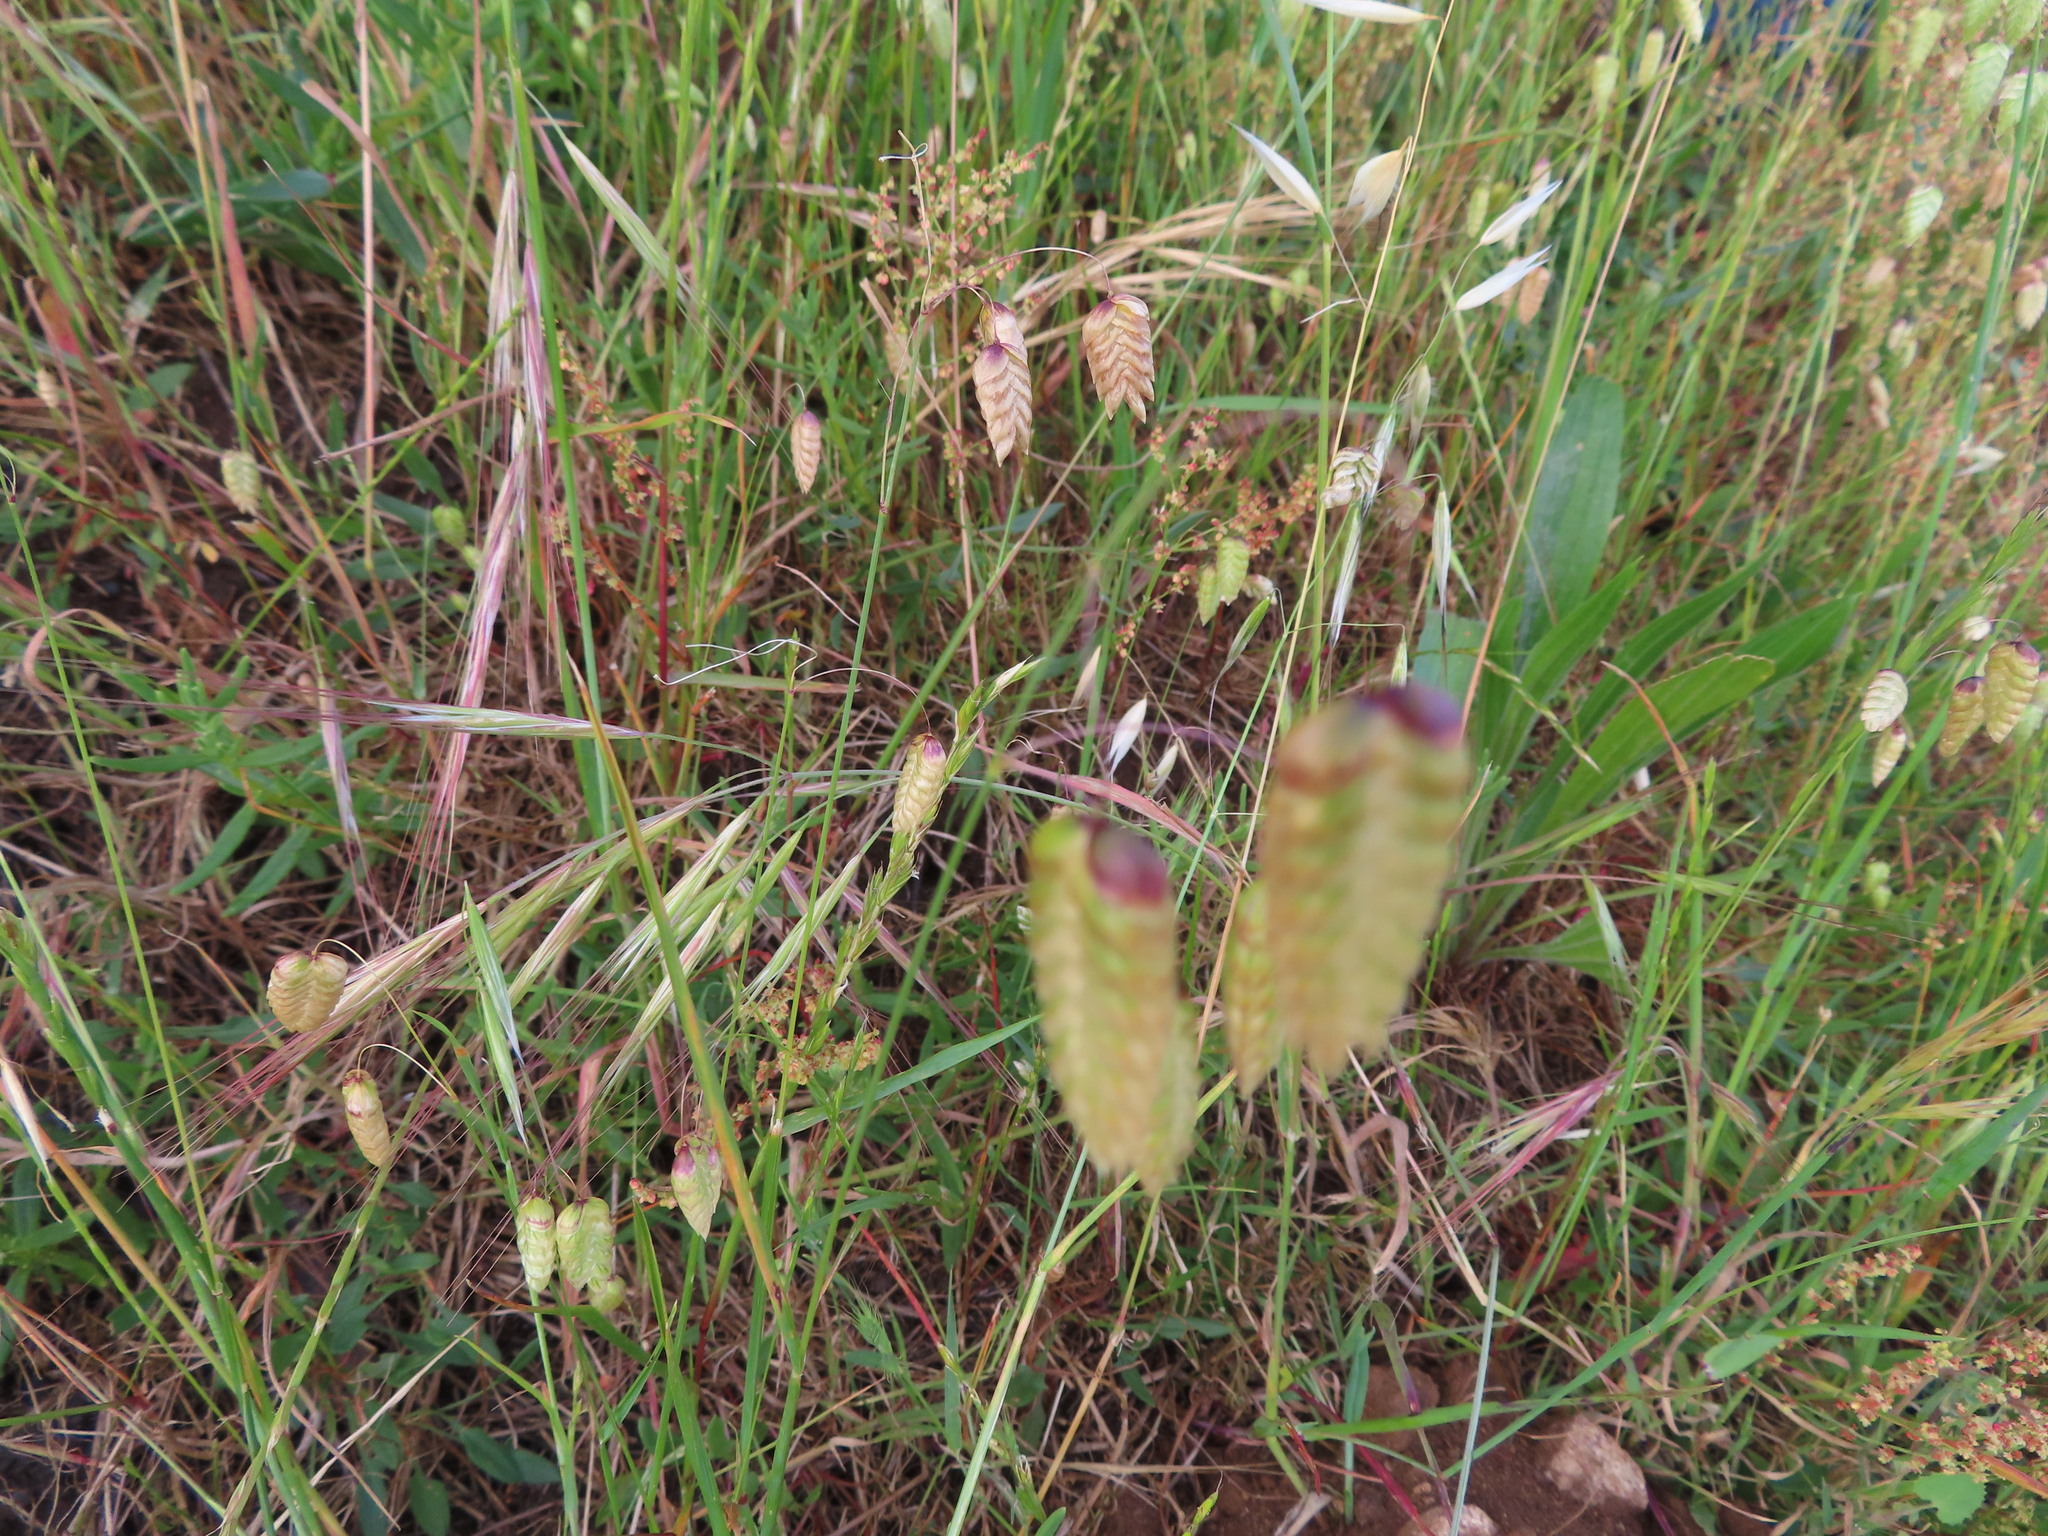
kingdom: Plantae
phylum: Tracheophyta
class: Liliopsida
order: Poales
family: Poaceae
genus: Briza
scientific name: Briza maxima
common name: Big quakinggrass
